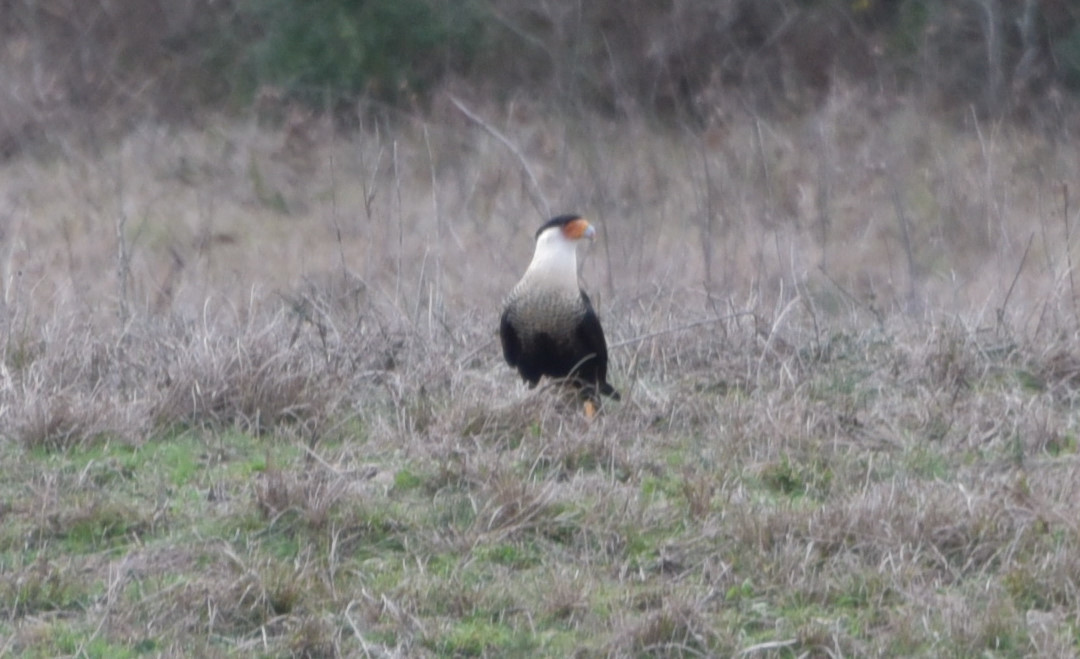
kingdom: Animalia
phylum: Chordata
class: Aves
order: Falconiformes
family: Falconidae
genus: Caracara
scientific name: Caracara plancus
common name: Southern caracara
